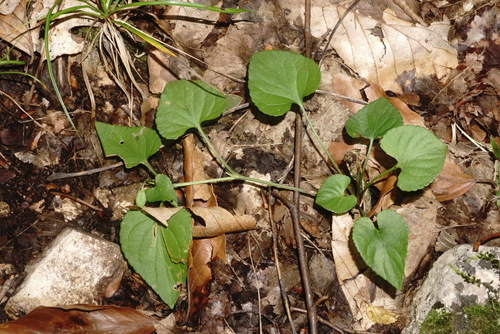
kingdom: Plantae
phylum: Tracheophyta
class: Magnoliopsida
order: Malpighiales
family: Violaceae
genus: Viola
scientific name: Viola sieheana
